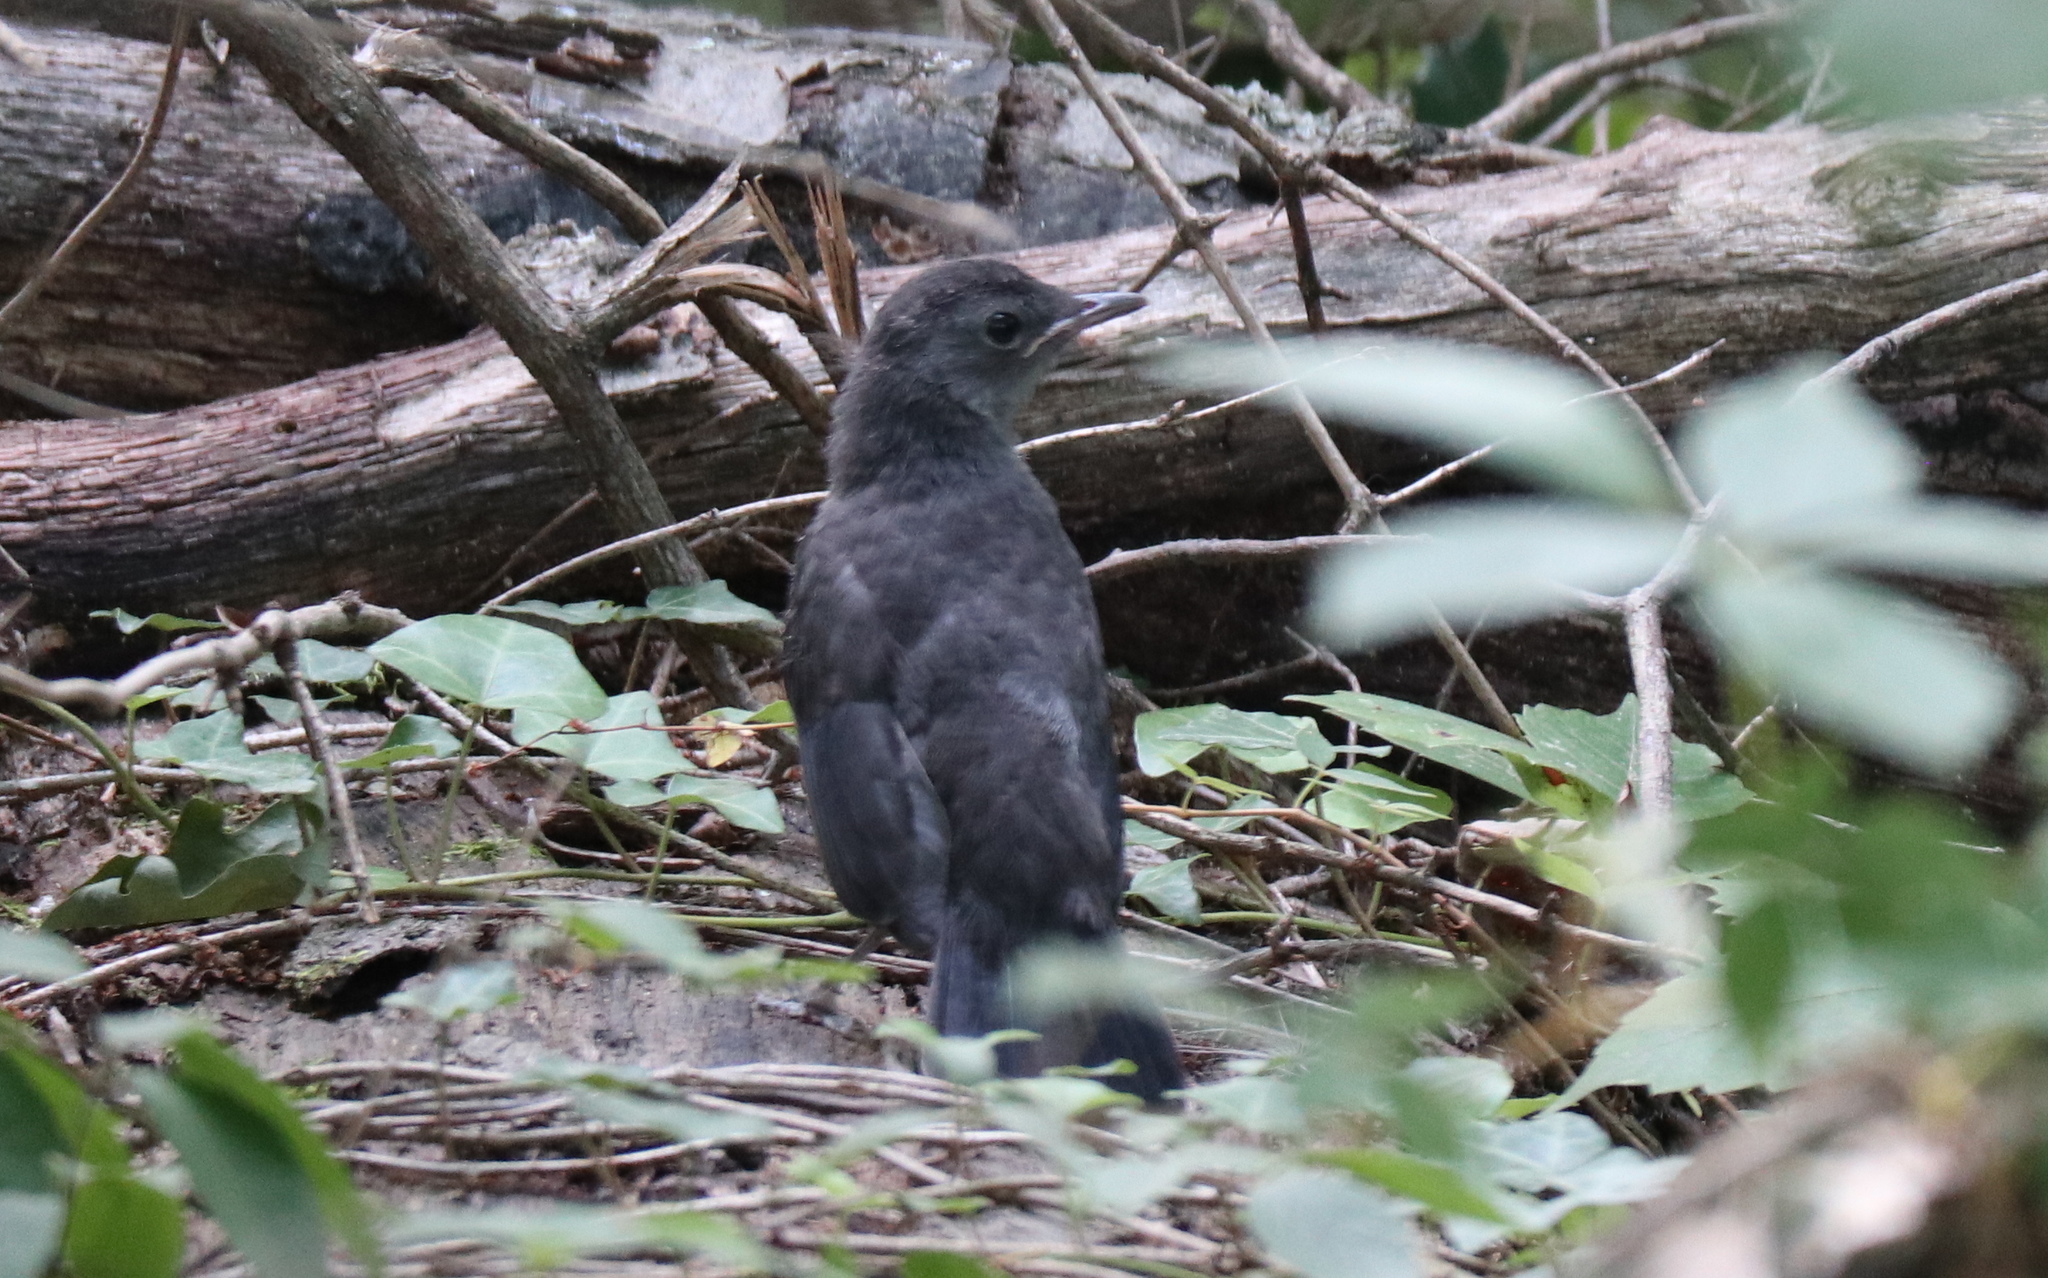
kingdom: Animalia
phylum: Chordata
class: Aves
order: Passeriformes
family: Mimidae
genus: Dumetella
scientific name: Dumetella carolinensis
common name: Gray catbird
